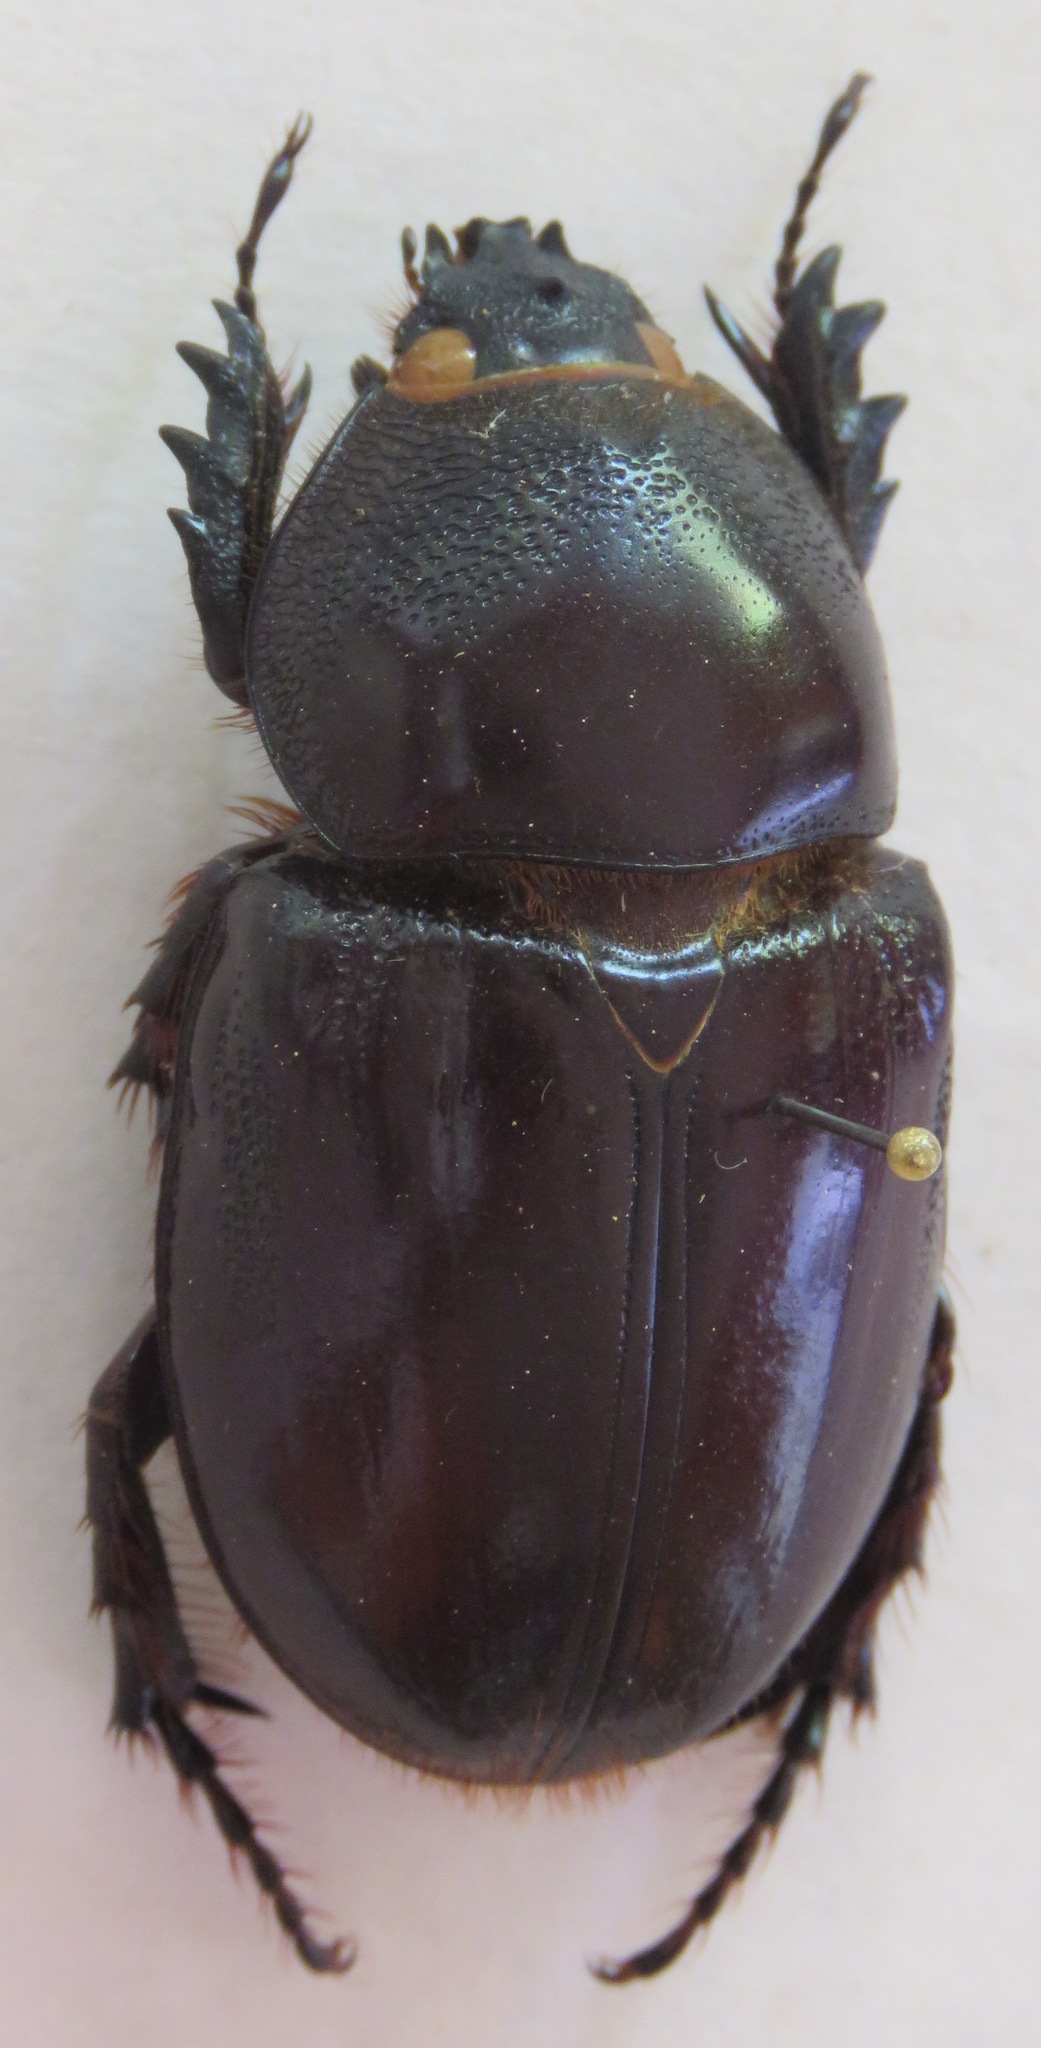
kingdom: Animalia
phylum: Arthropoda
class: Insecta
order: Coleoptera
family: Scarabaeidae
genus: Heterogomphus
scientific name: Heterogomphus chevrolati
